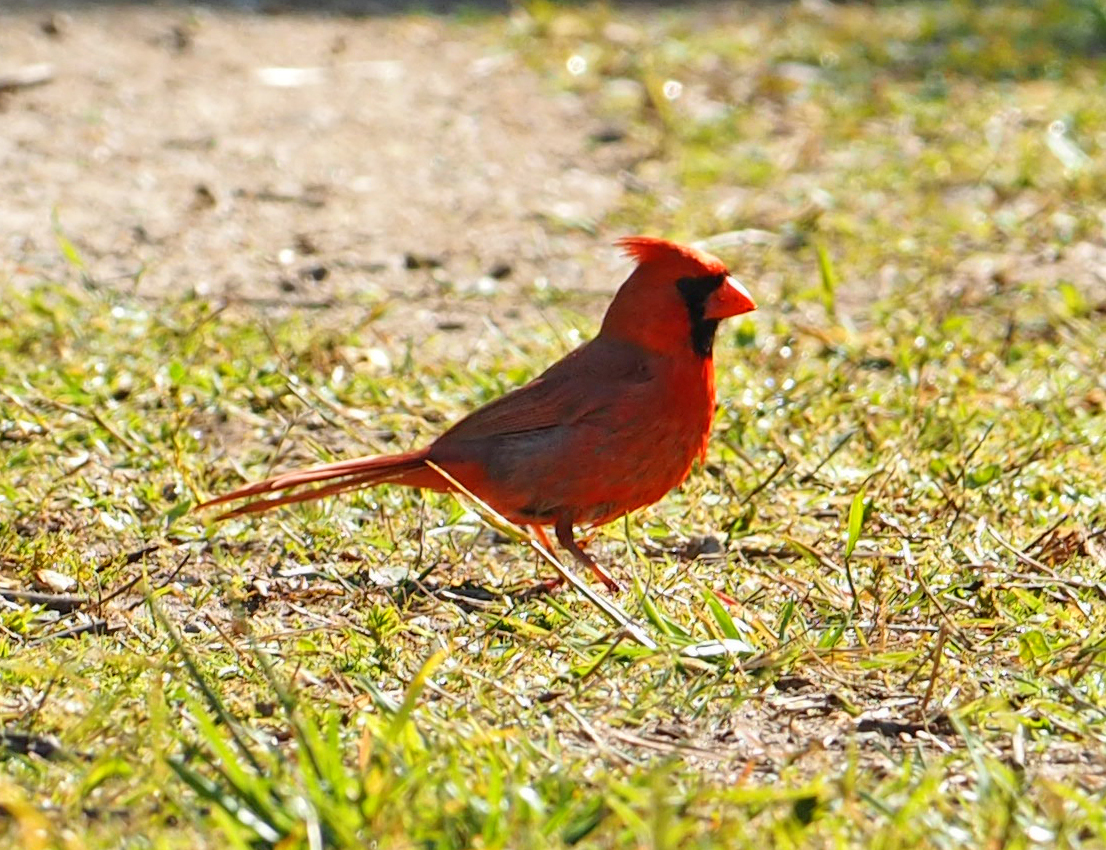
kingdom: Animalia
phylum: Chordata
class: Aves
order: Passeriformes
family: Cardinalidae
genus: Cardinalis
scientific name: Cardinalis cardinalis
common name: Northern cardinal
